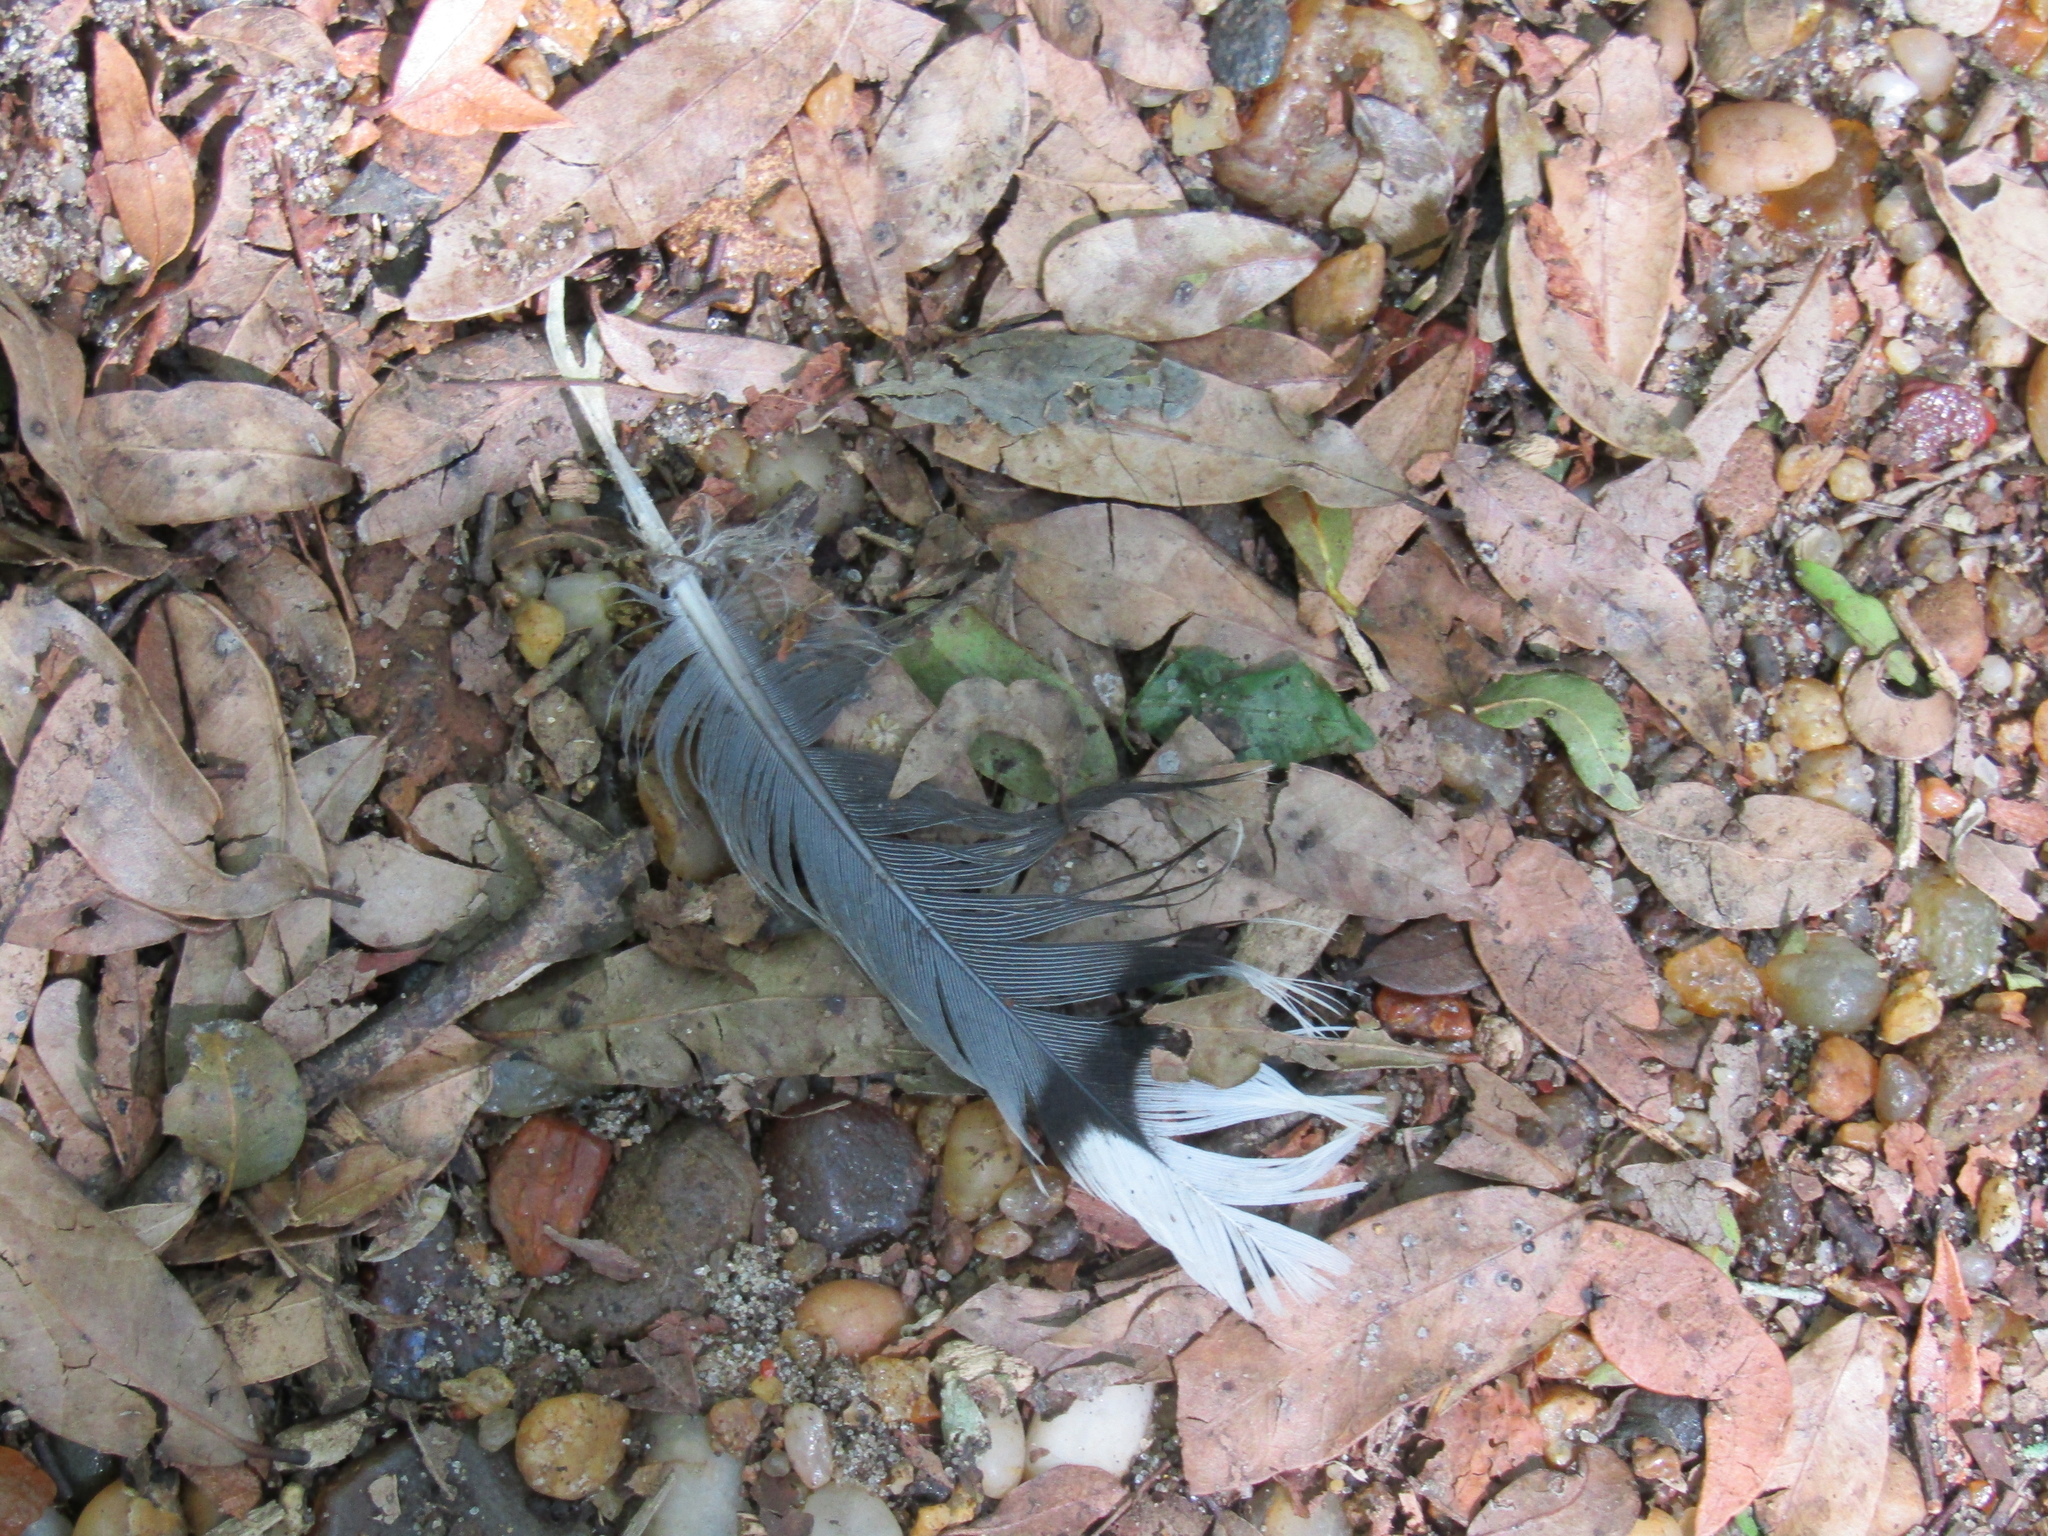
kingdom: Animalia
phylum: Chordata
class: Aves
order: Columbiformes
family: Columbidae
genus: Zenaida
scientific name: Zenaida auriculata
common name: Eared dove
